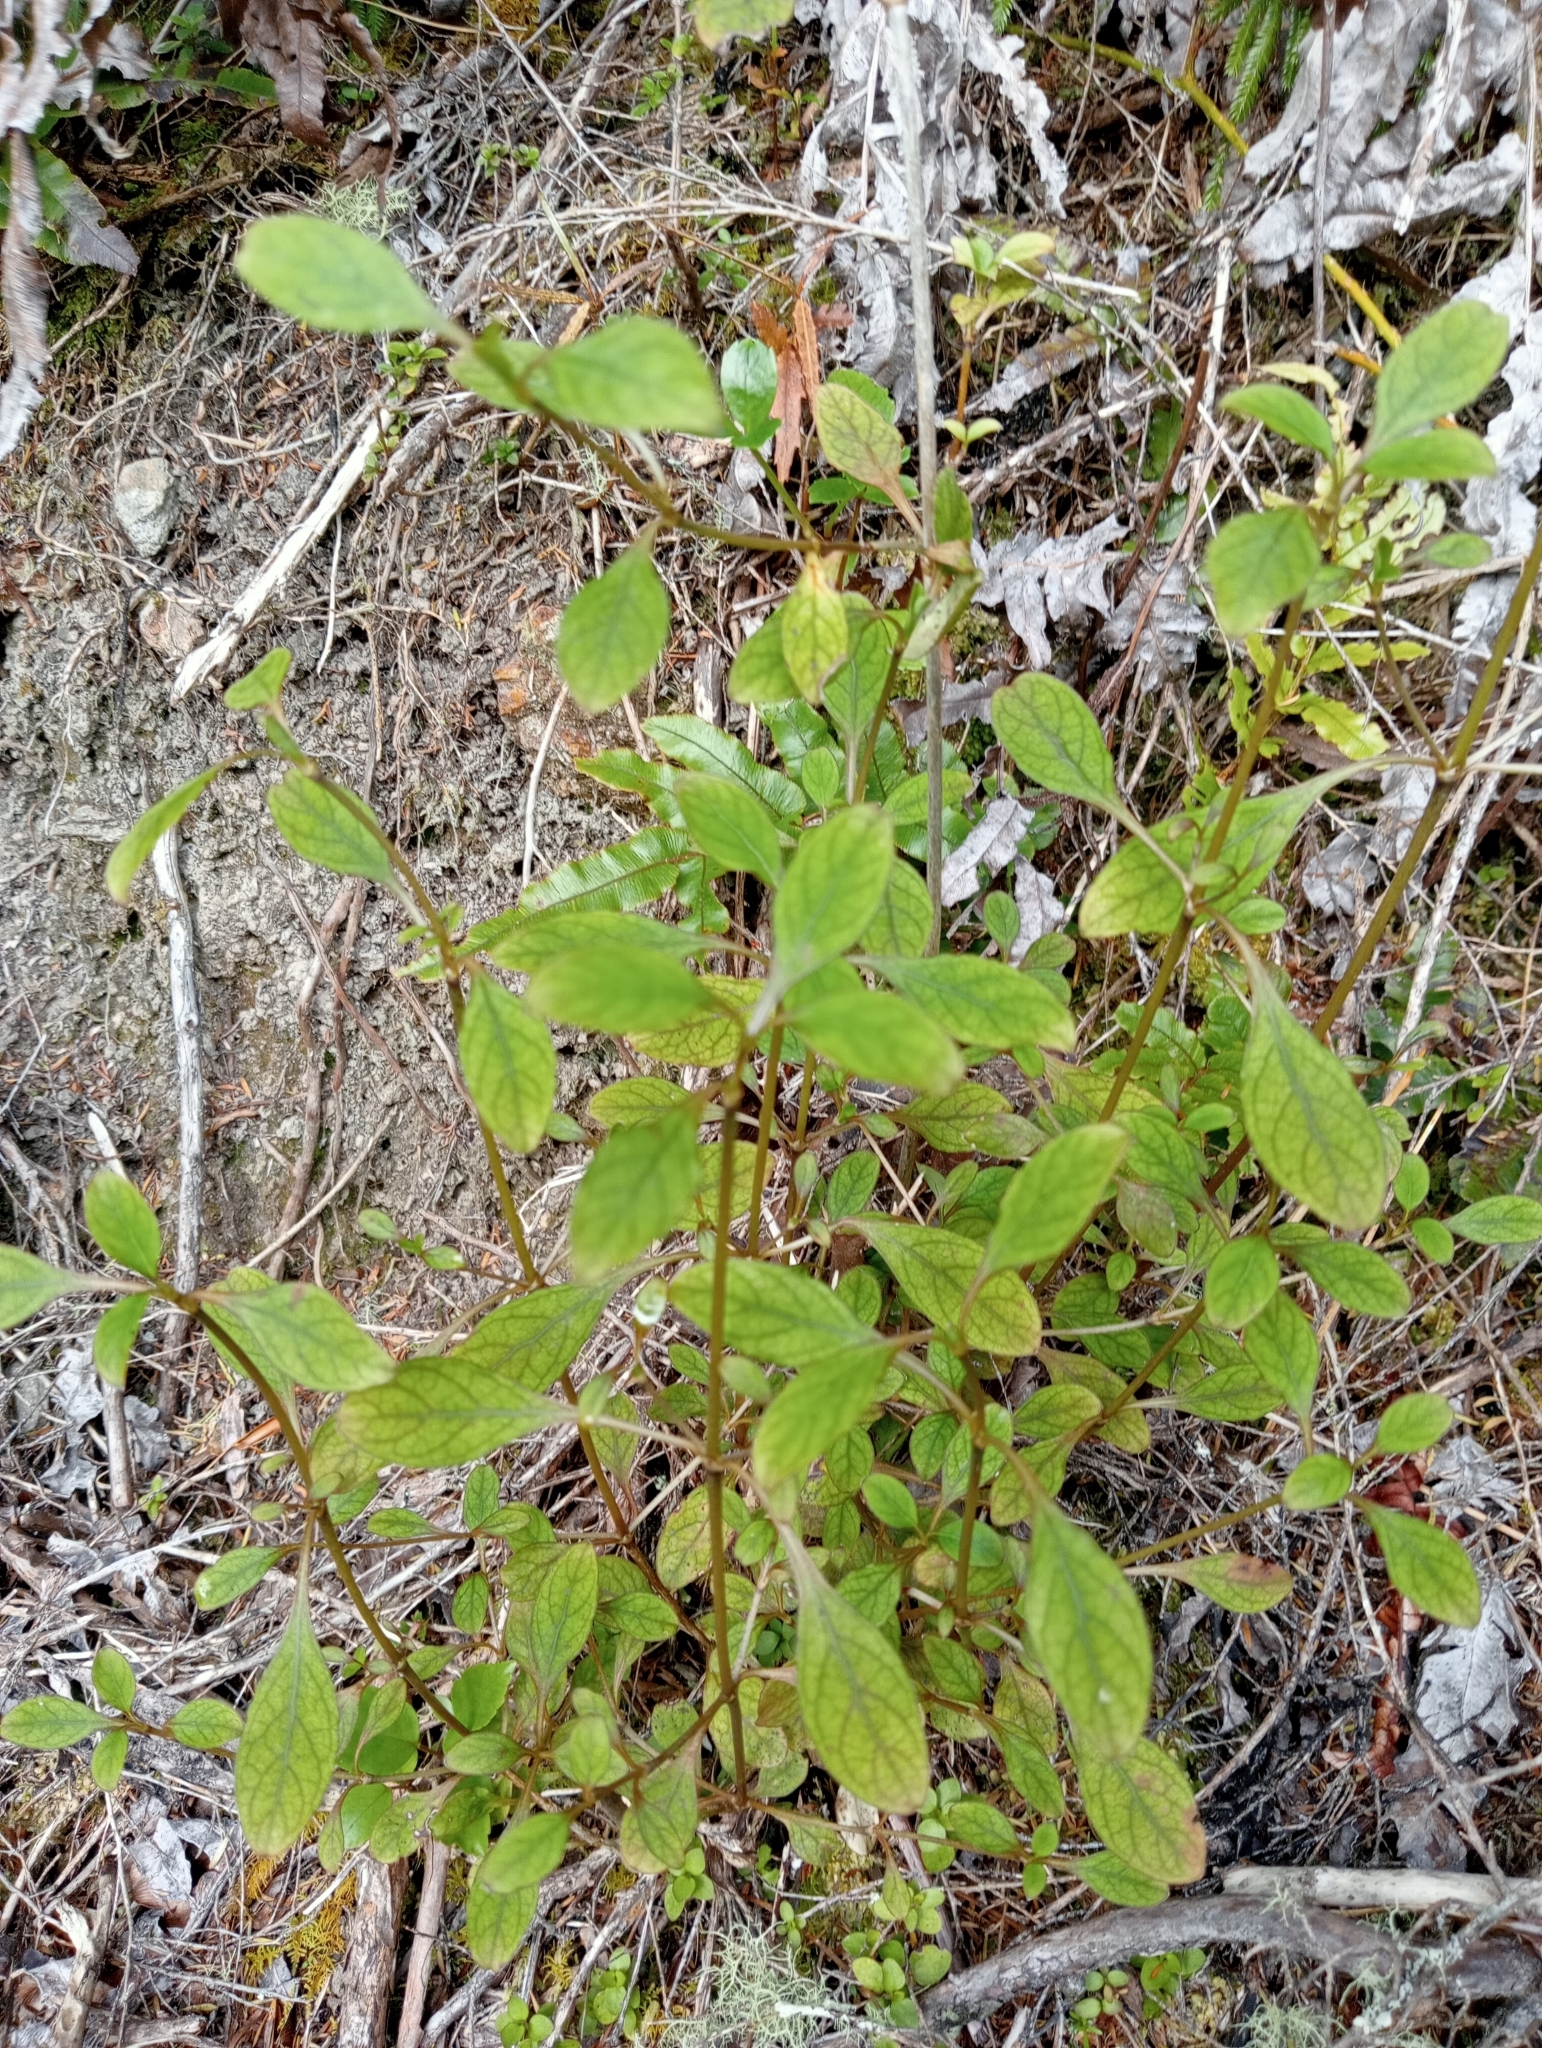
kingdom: Plantae
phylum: Tracheophyta
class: Magnoliopsida
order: Gentianales
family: Rubiaceae
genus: Coprosma
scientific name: Coprosma foetidissima
